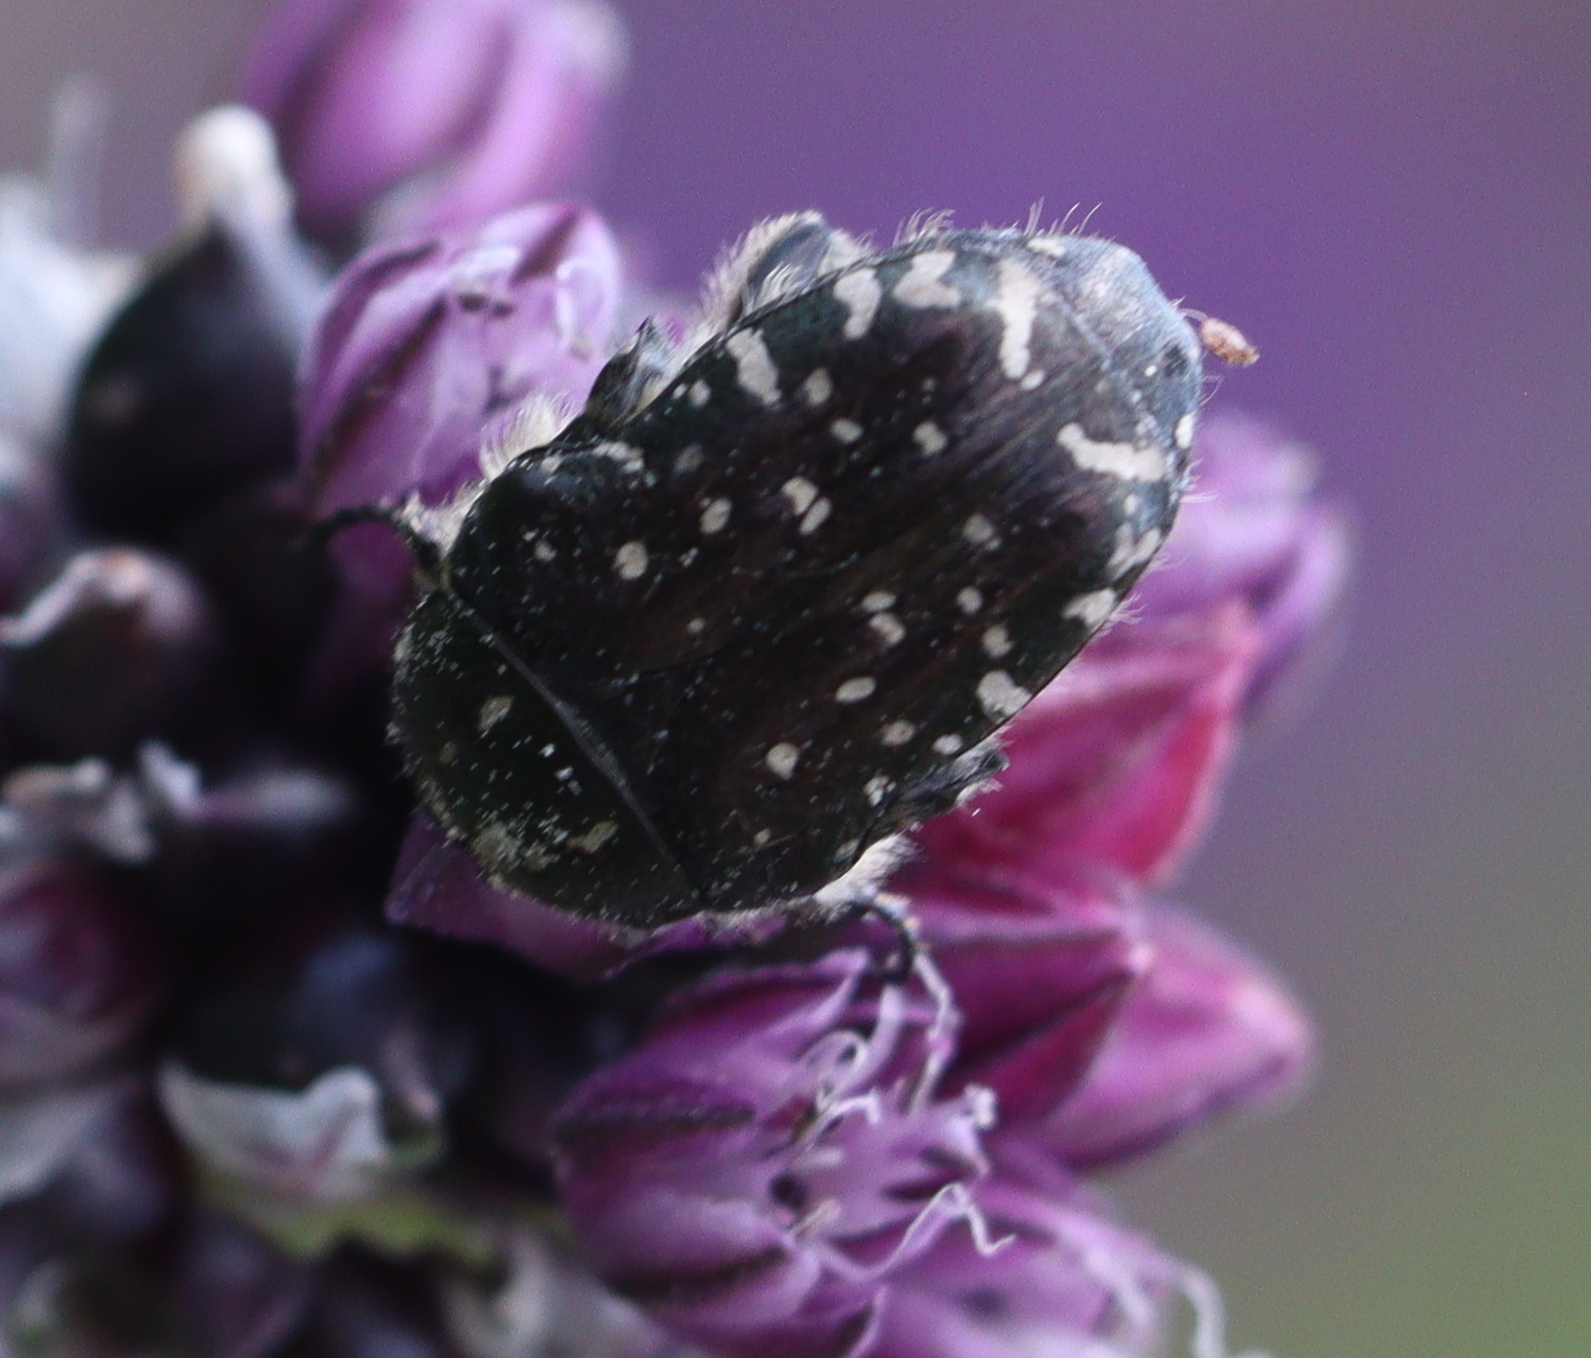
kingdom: Animalia
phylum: Arthropoda
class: Insecta
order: Coleoptera
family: Scarabaeidae
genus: Oxythyrea
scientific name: Oxythyrea funesta
